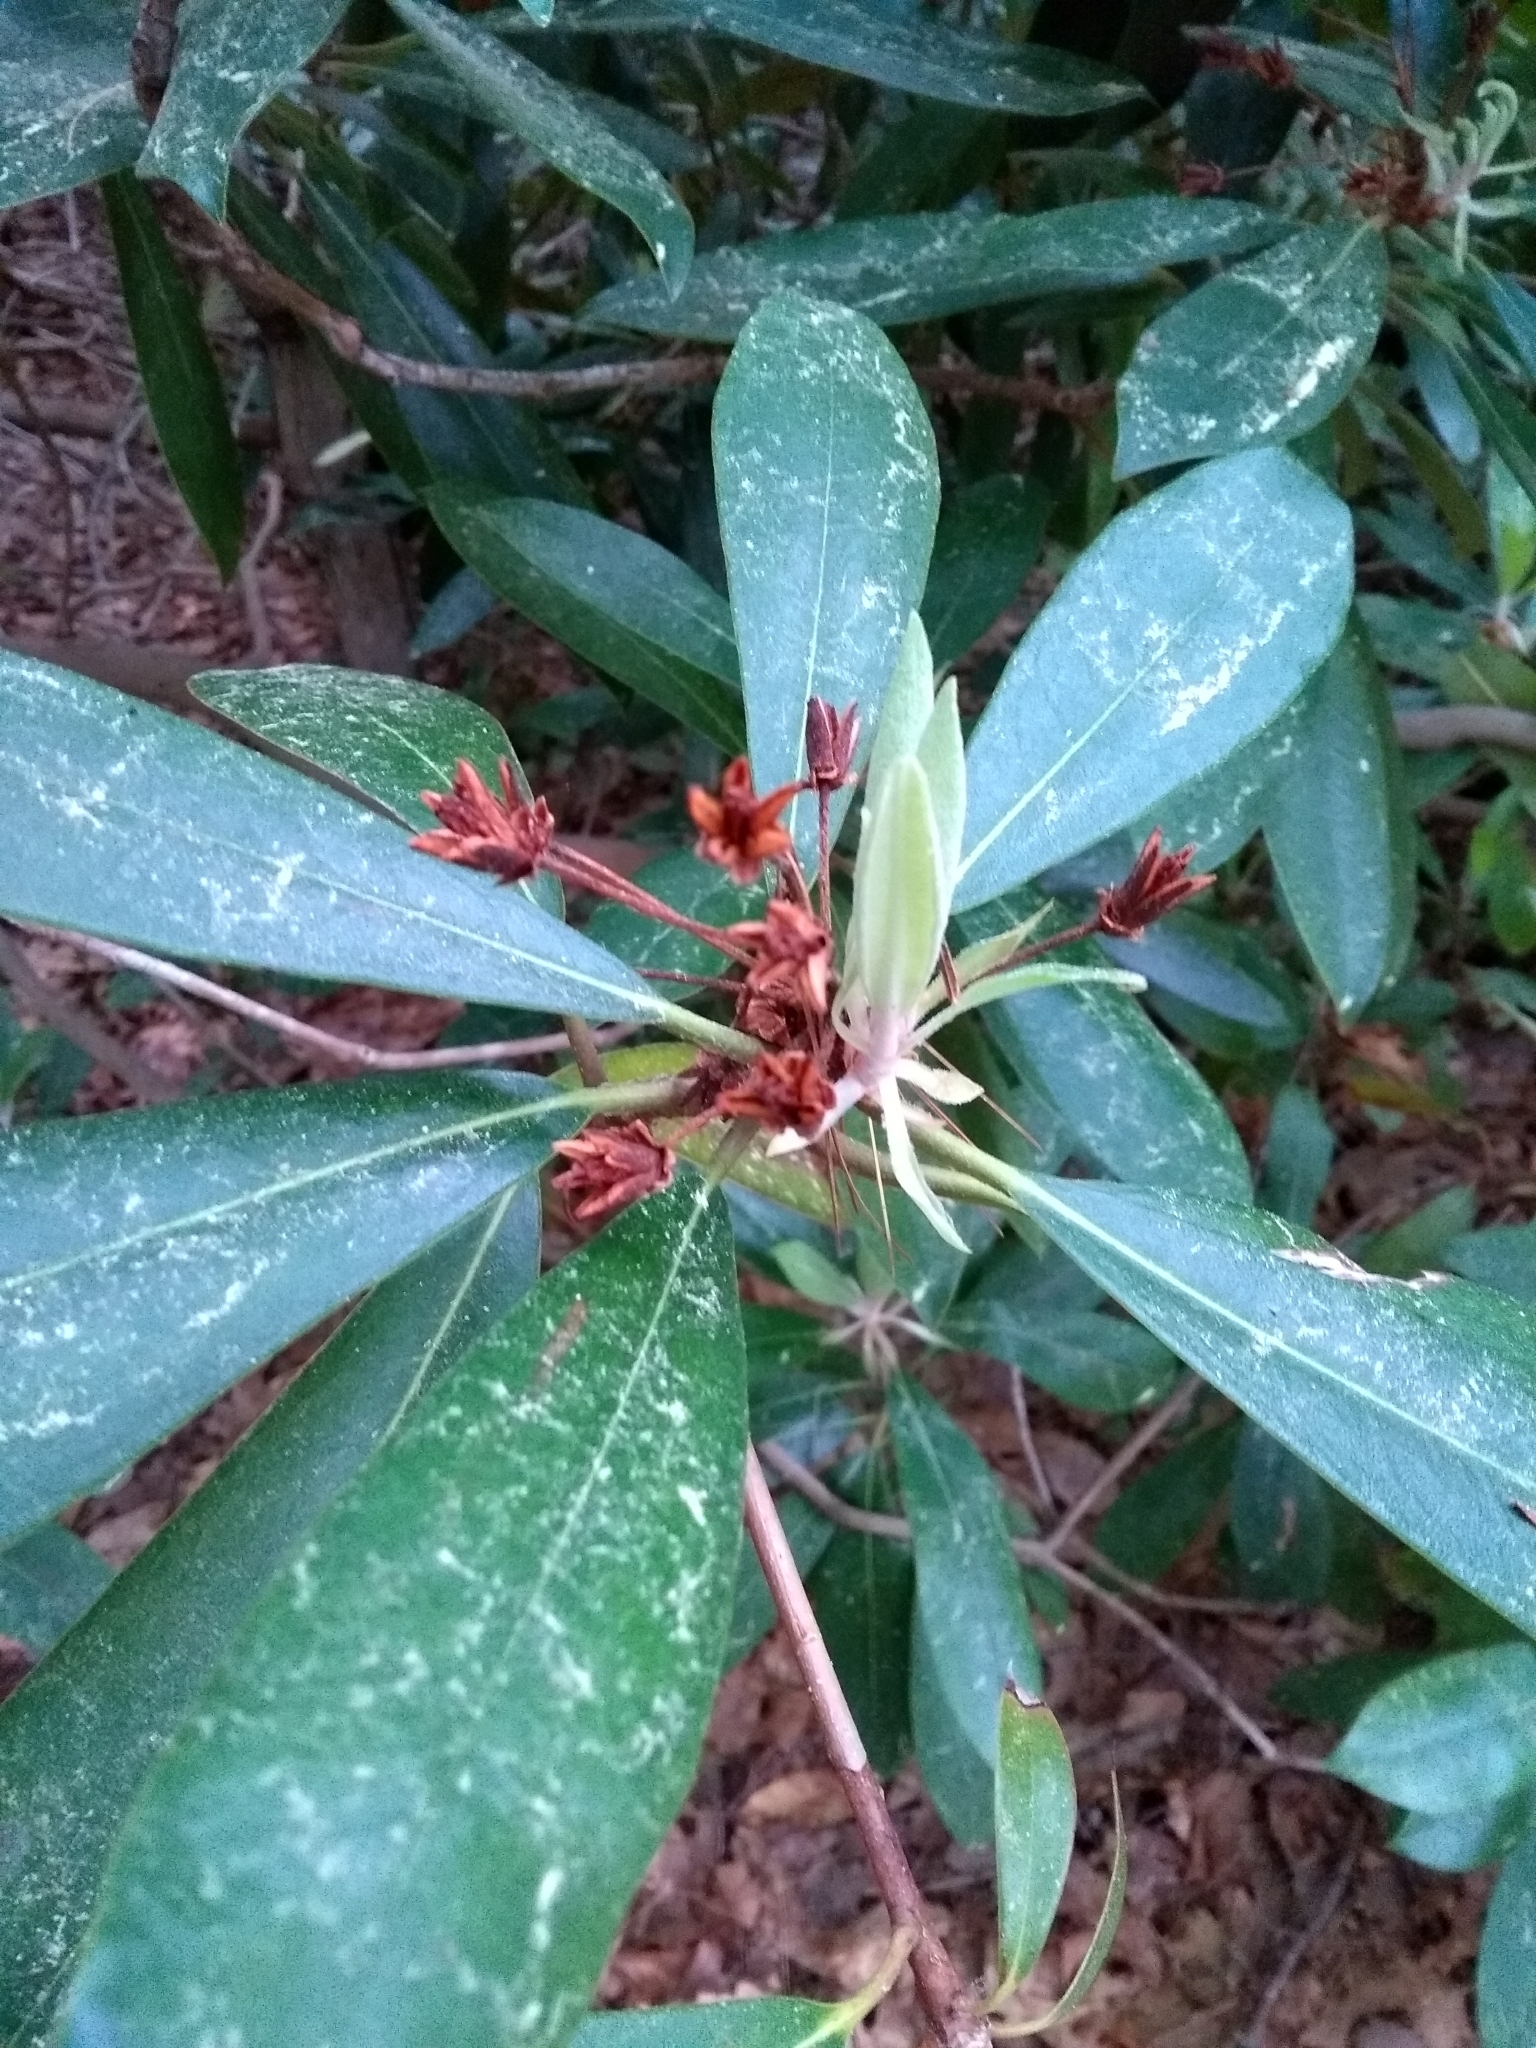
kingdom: Plantae
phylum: Tracheophyta
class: Magnoliopsida
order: Ericales
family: Ericaceae
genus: Rhododendron
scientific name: Rhododendron maximum
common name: Great rhododendron
